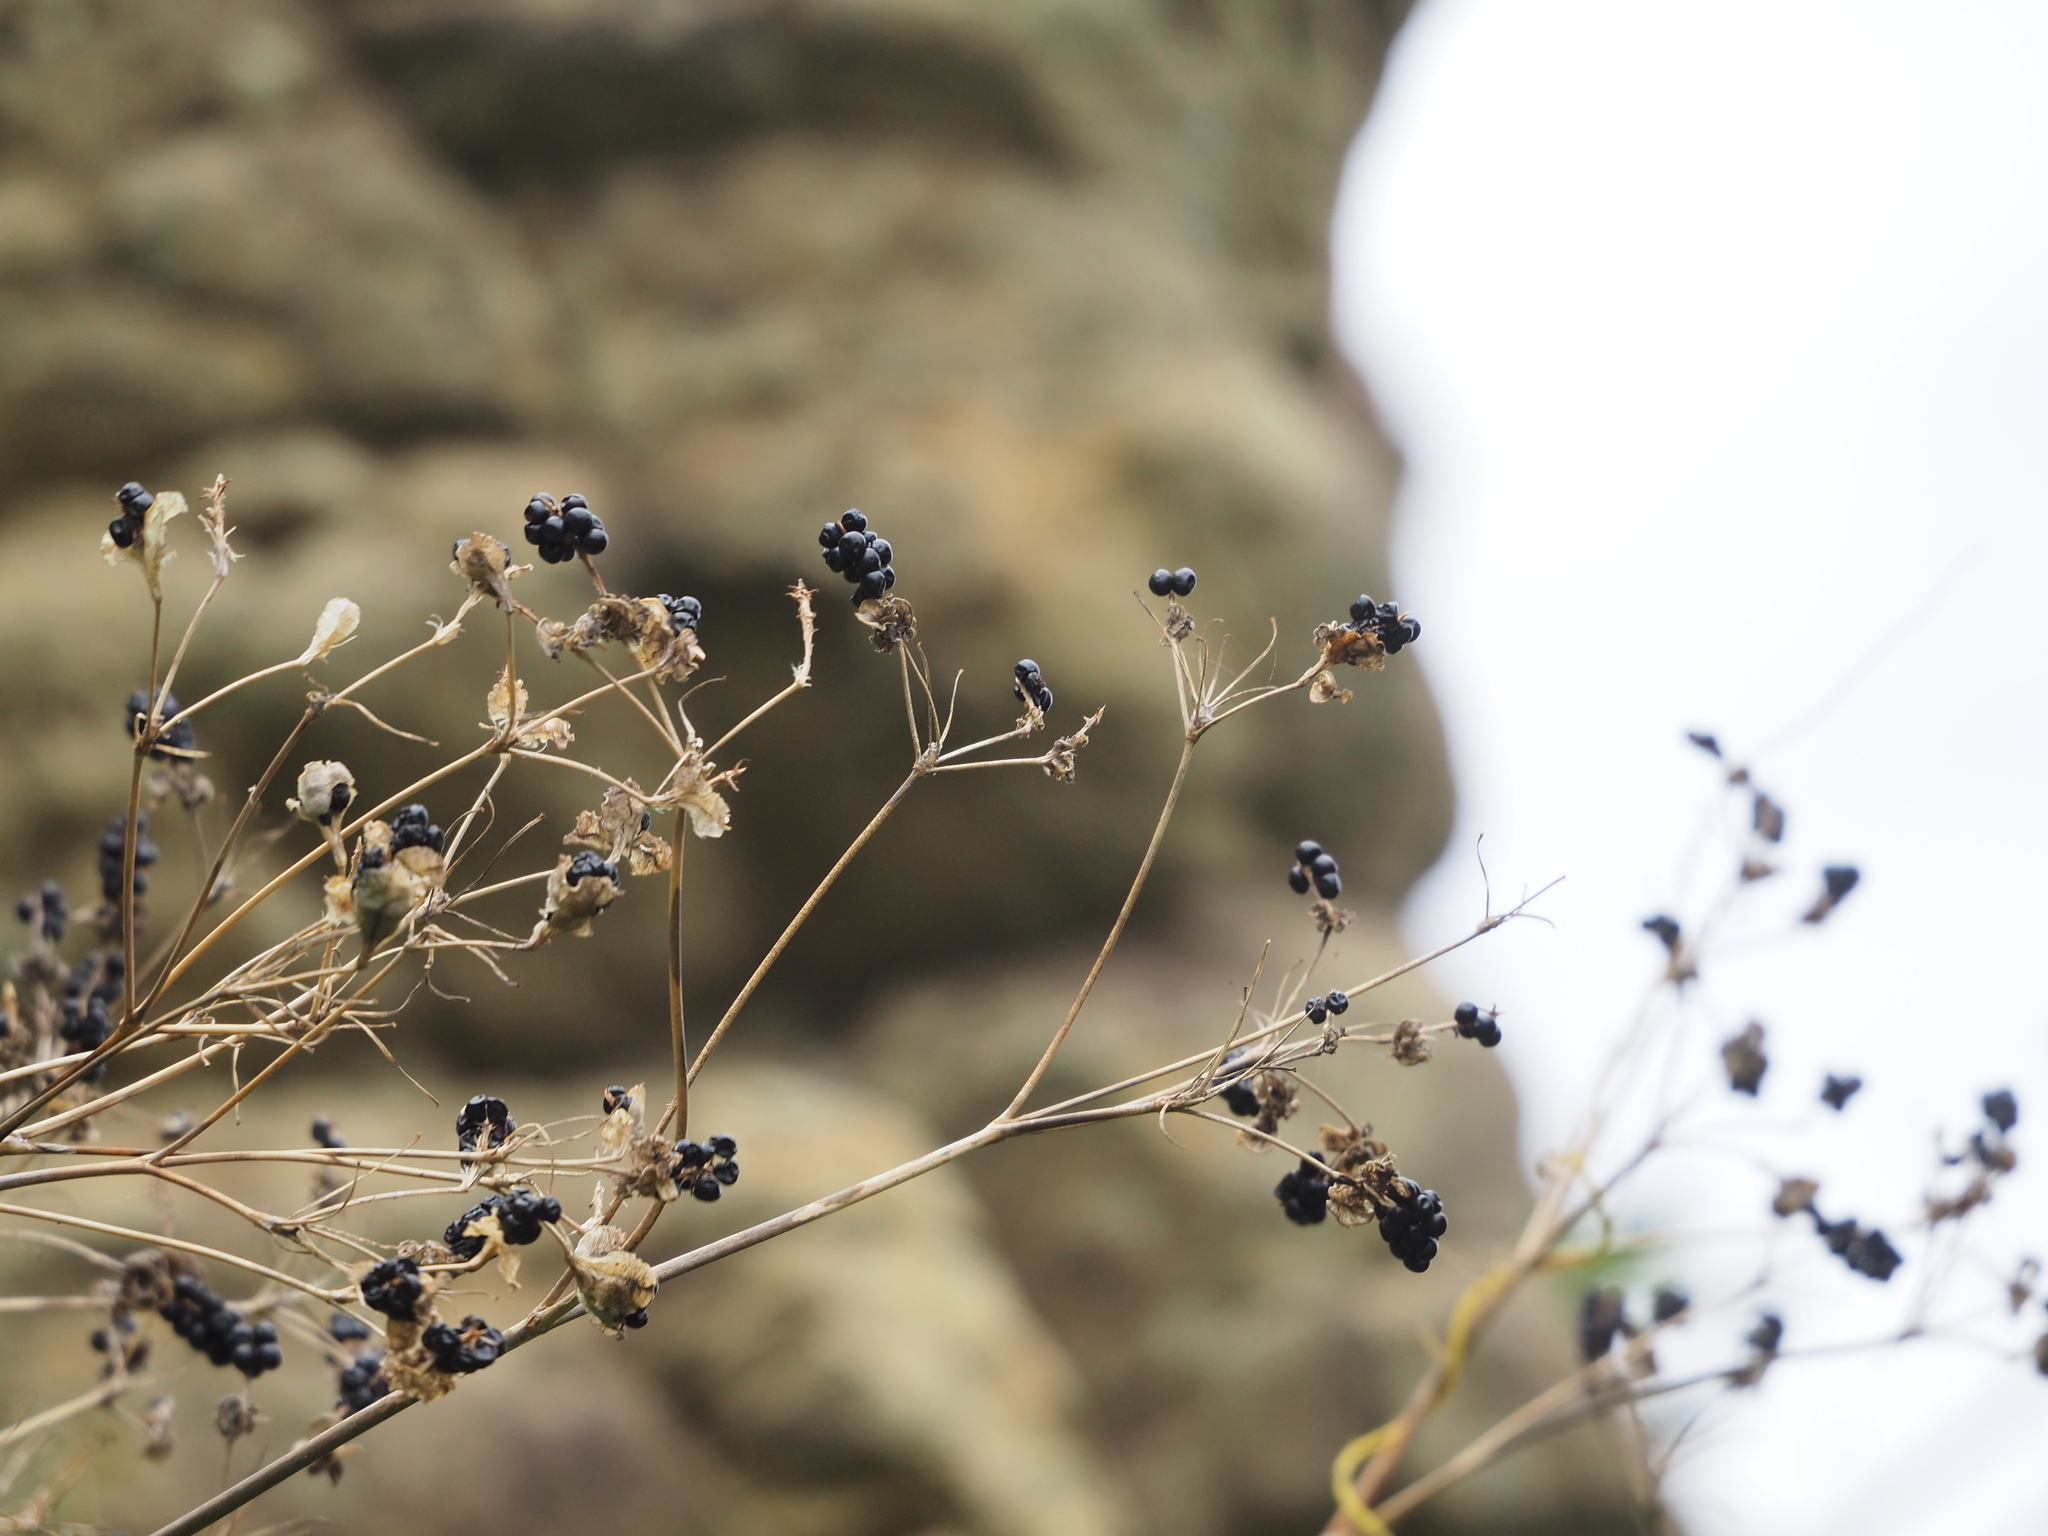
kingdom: Plantae
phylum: Tracheophyta
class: Liliopsida
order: Asparagales
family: Iridaceae
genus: Iris
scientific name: Iris domestica
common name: Belamcanda
